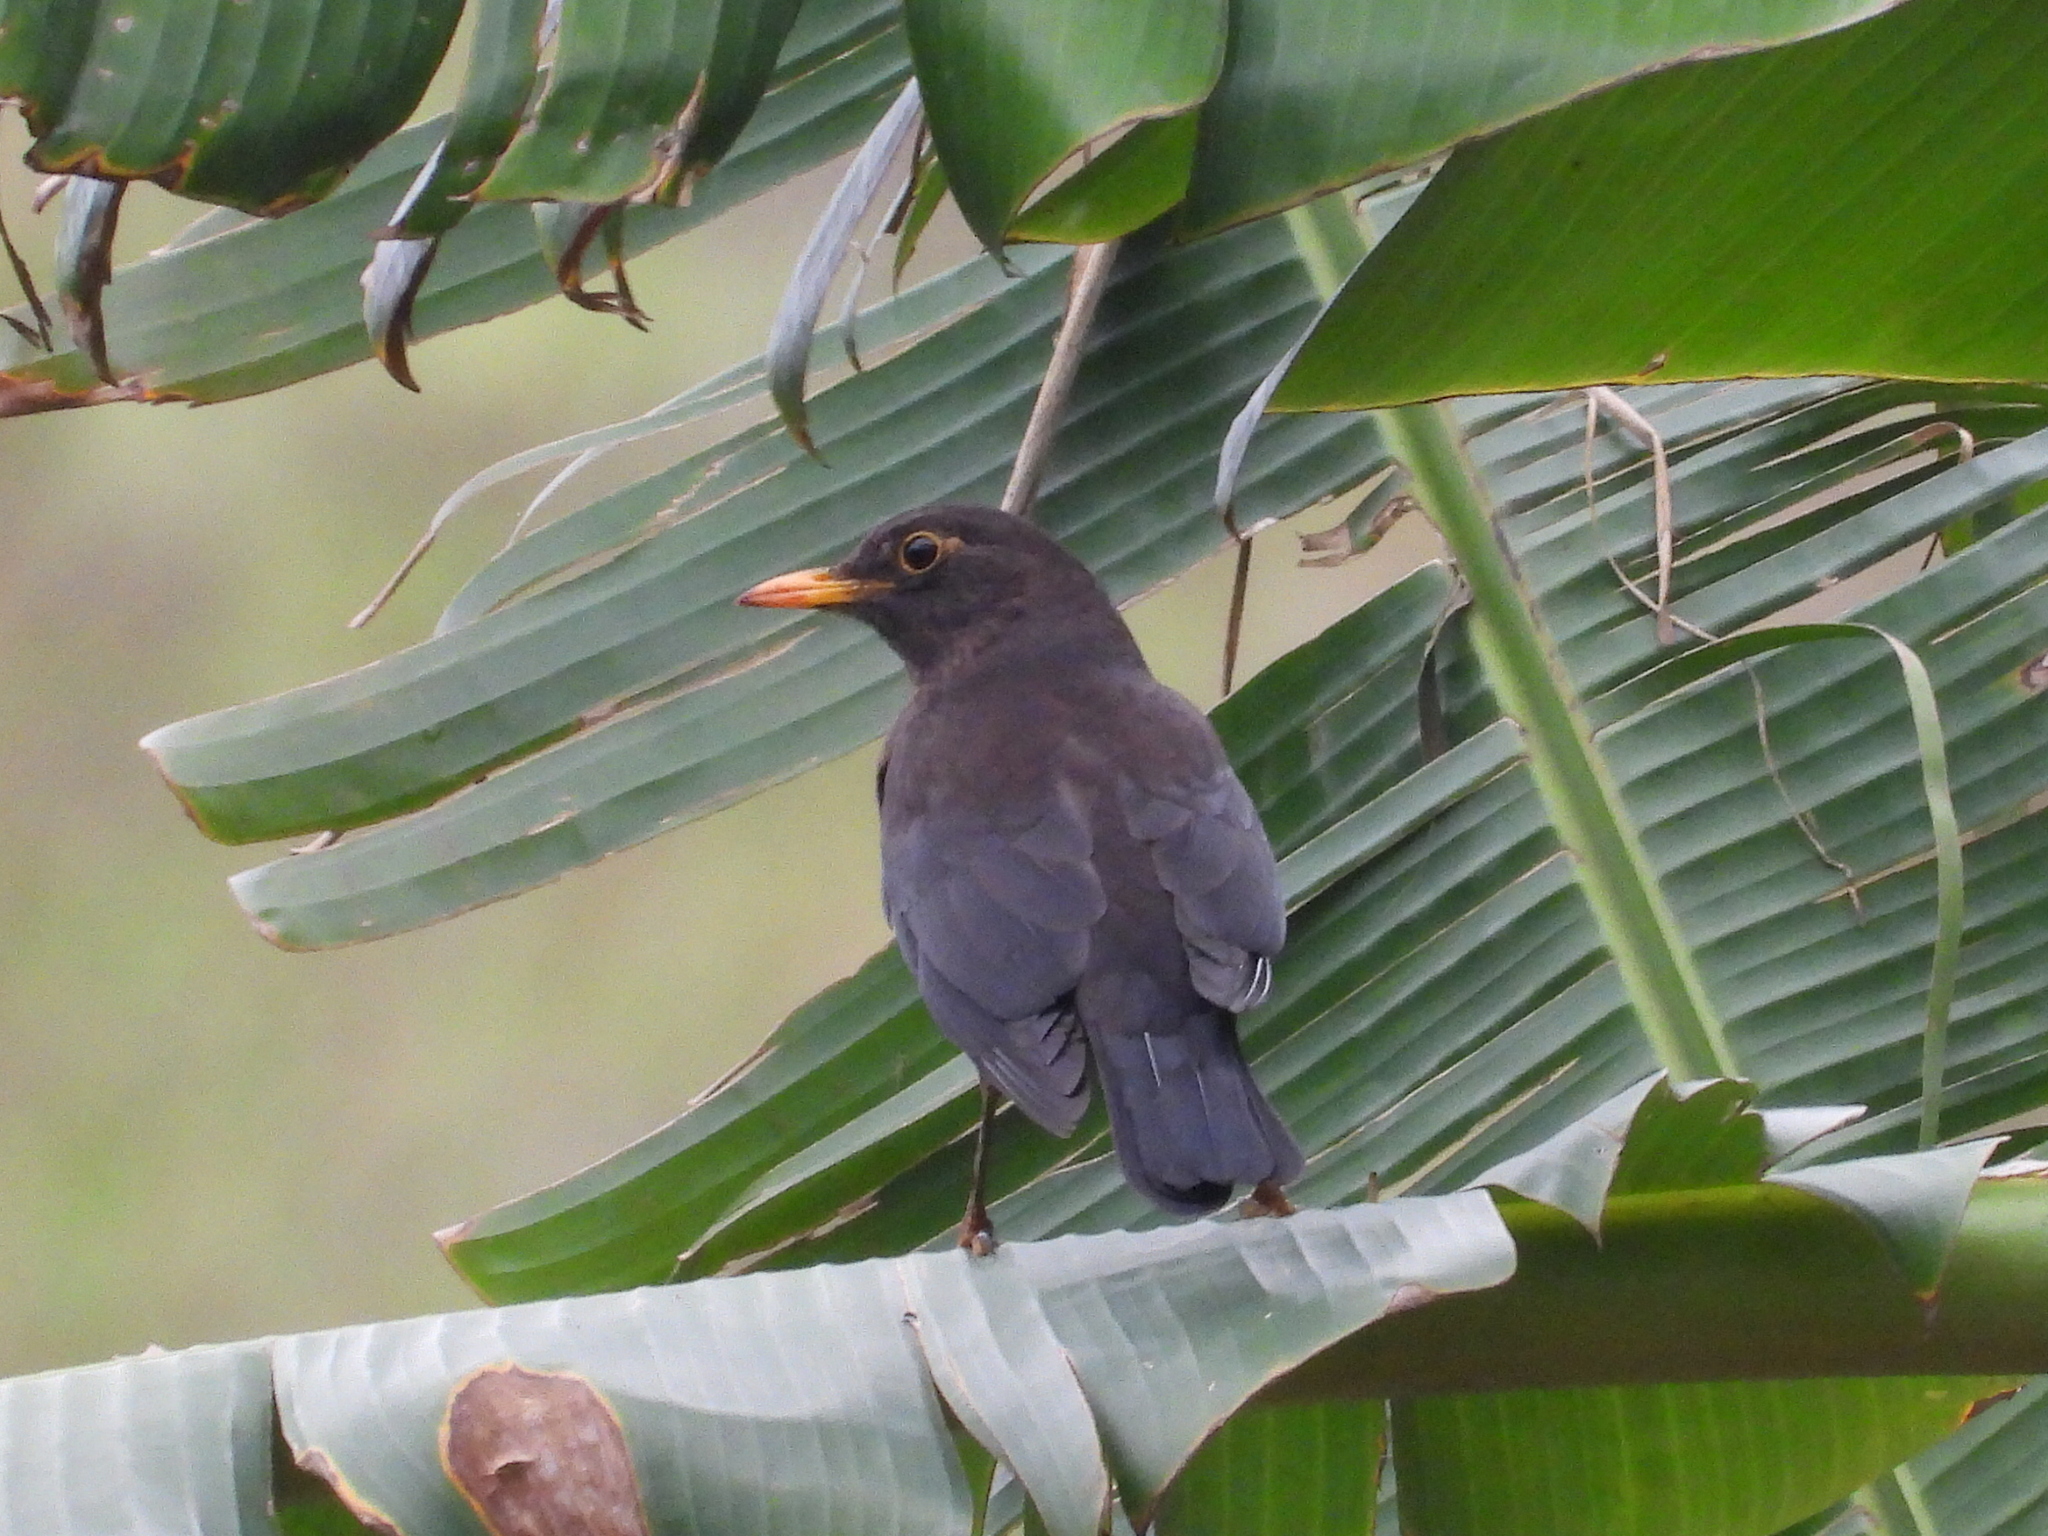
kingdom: Animalia
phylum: Chordata
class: Aves
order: Passeriformes
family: Turdidae
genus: Turdus
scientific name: Turdus mandarinus
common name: Chinese blackbird
